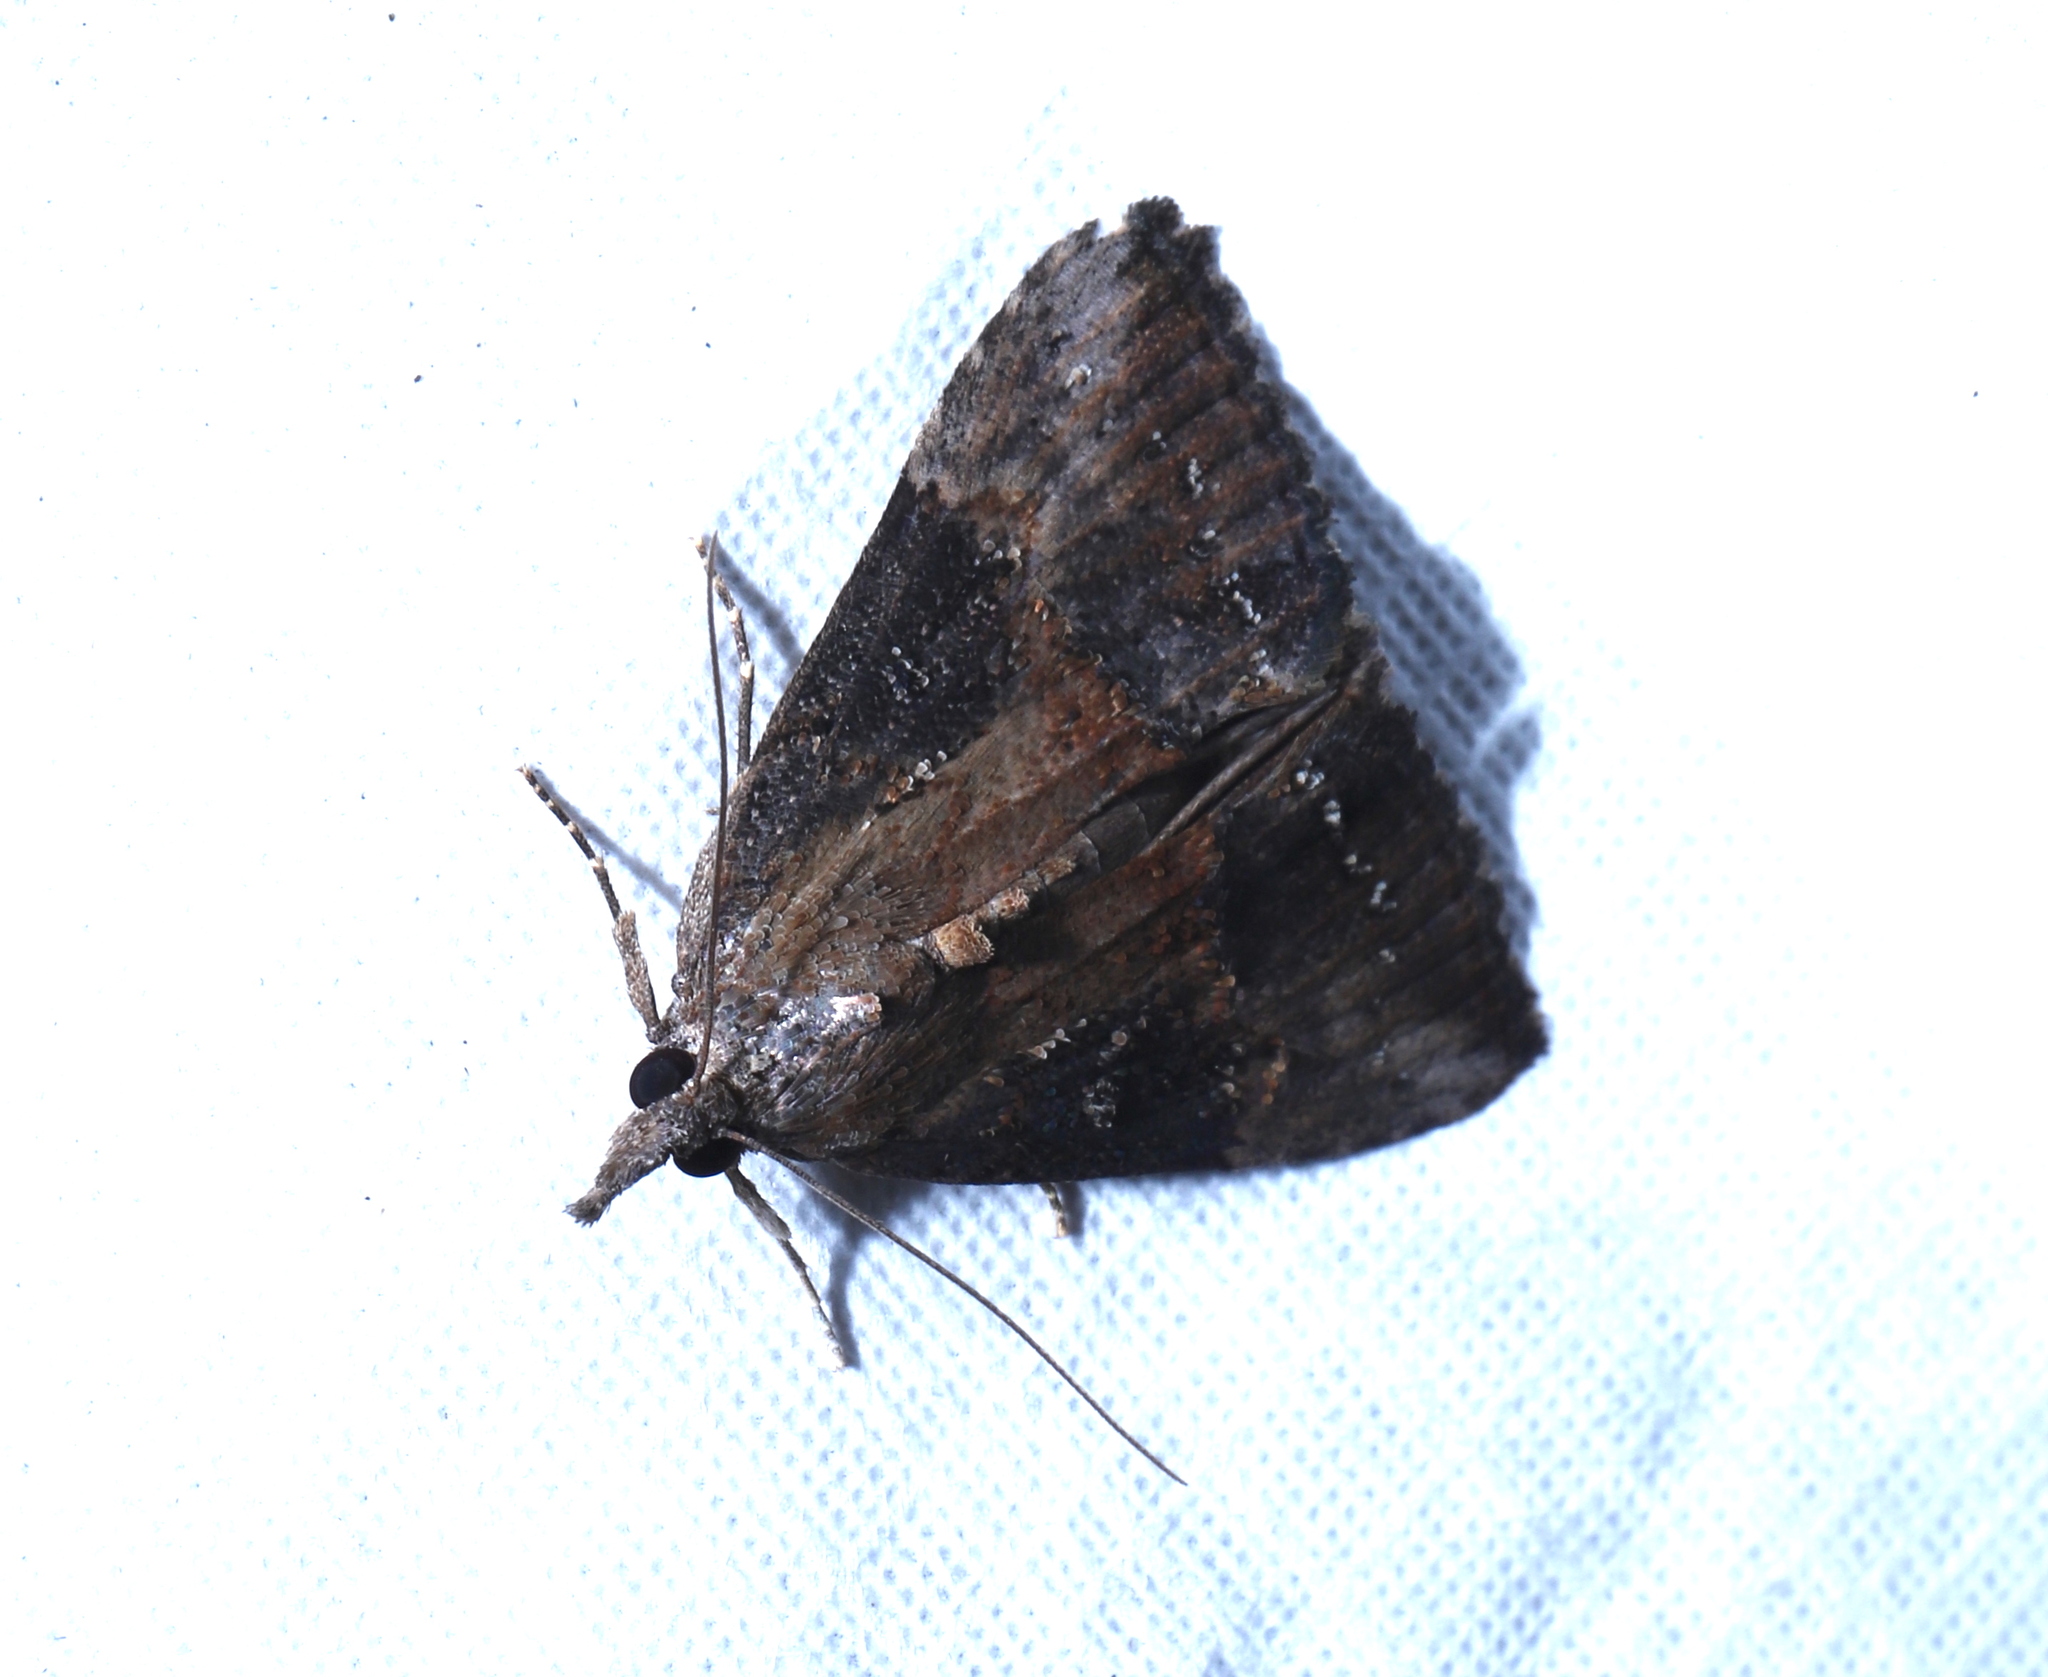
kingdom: Animalia
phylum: Arthropoda
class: Insecta
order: Lepidoptera
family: Erebidae
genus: Hypena
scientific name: Hypena scabra
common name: Green cloverworm
